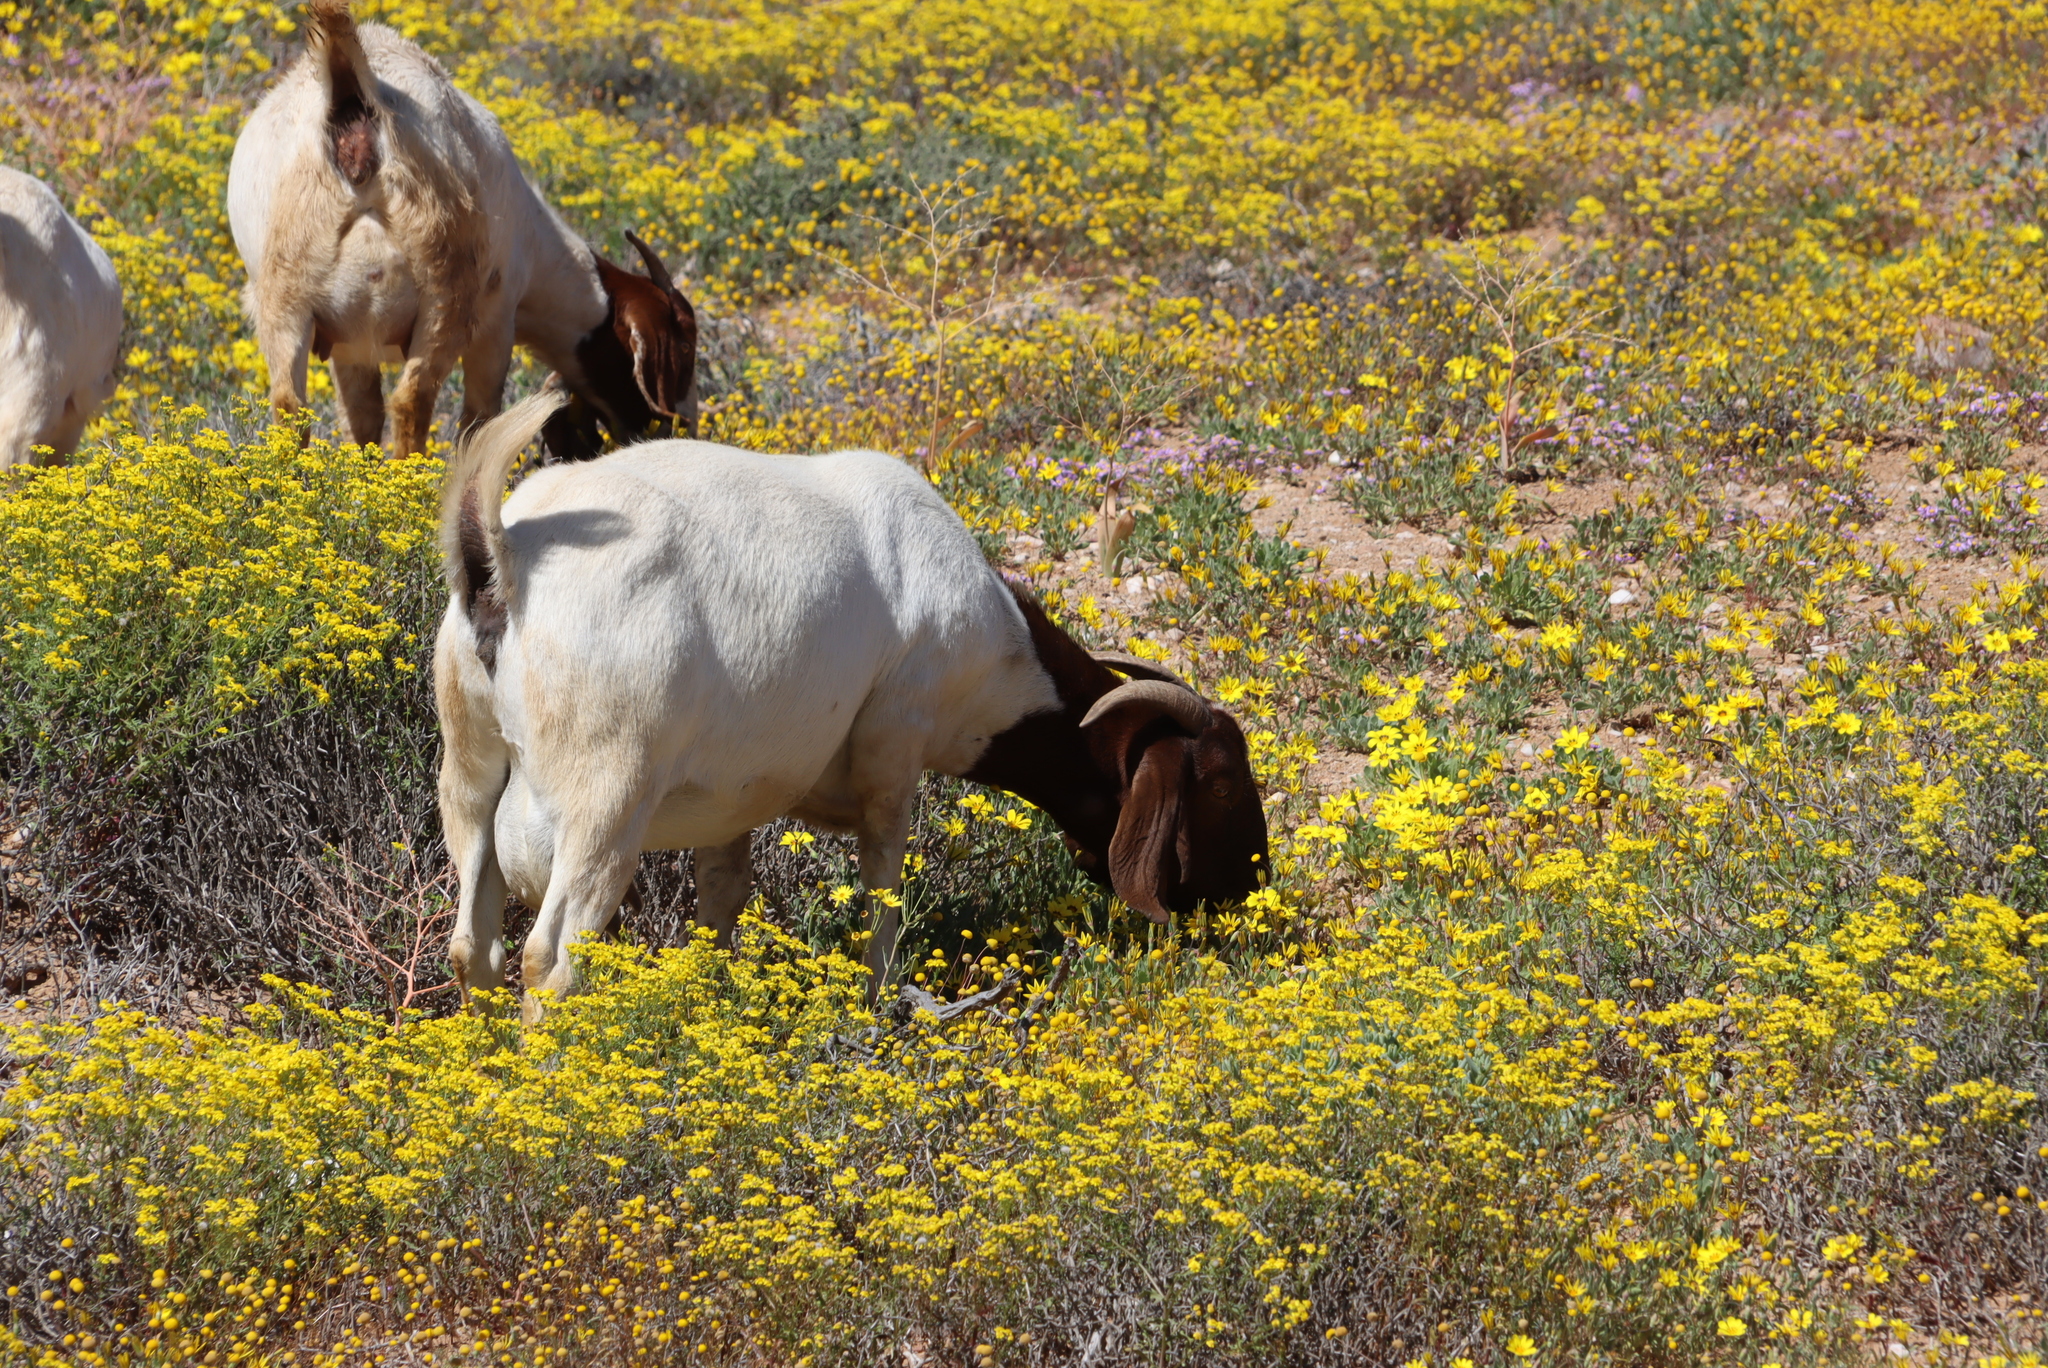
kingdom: Animalia
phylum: Chordata
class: Mammalia
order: Artiodactyla
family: Bovidae
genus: Capra
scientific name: Capra hircus
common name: Domestic goat
